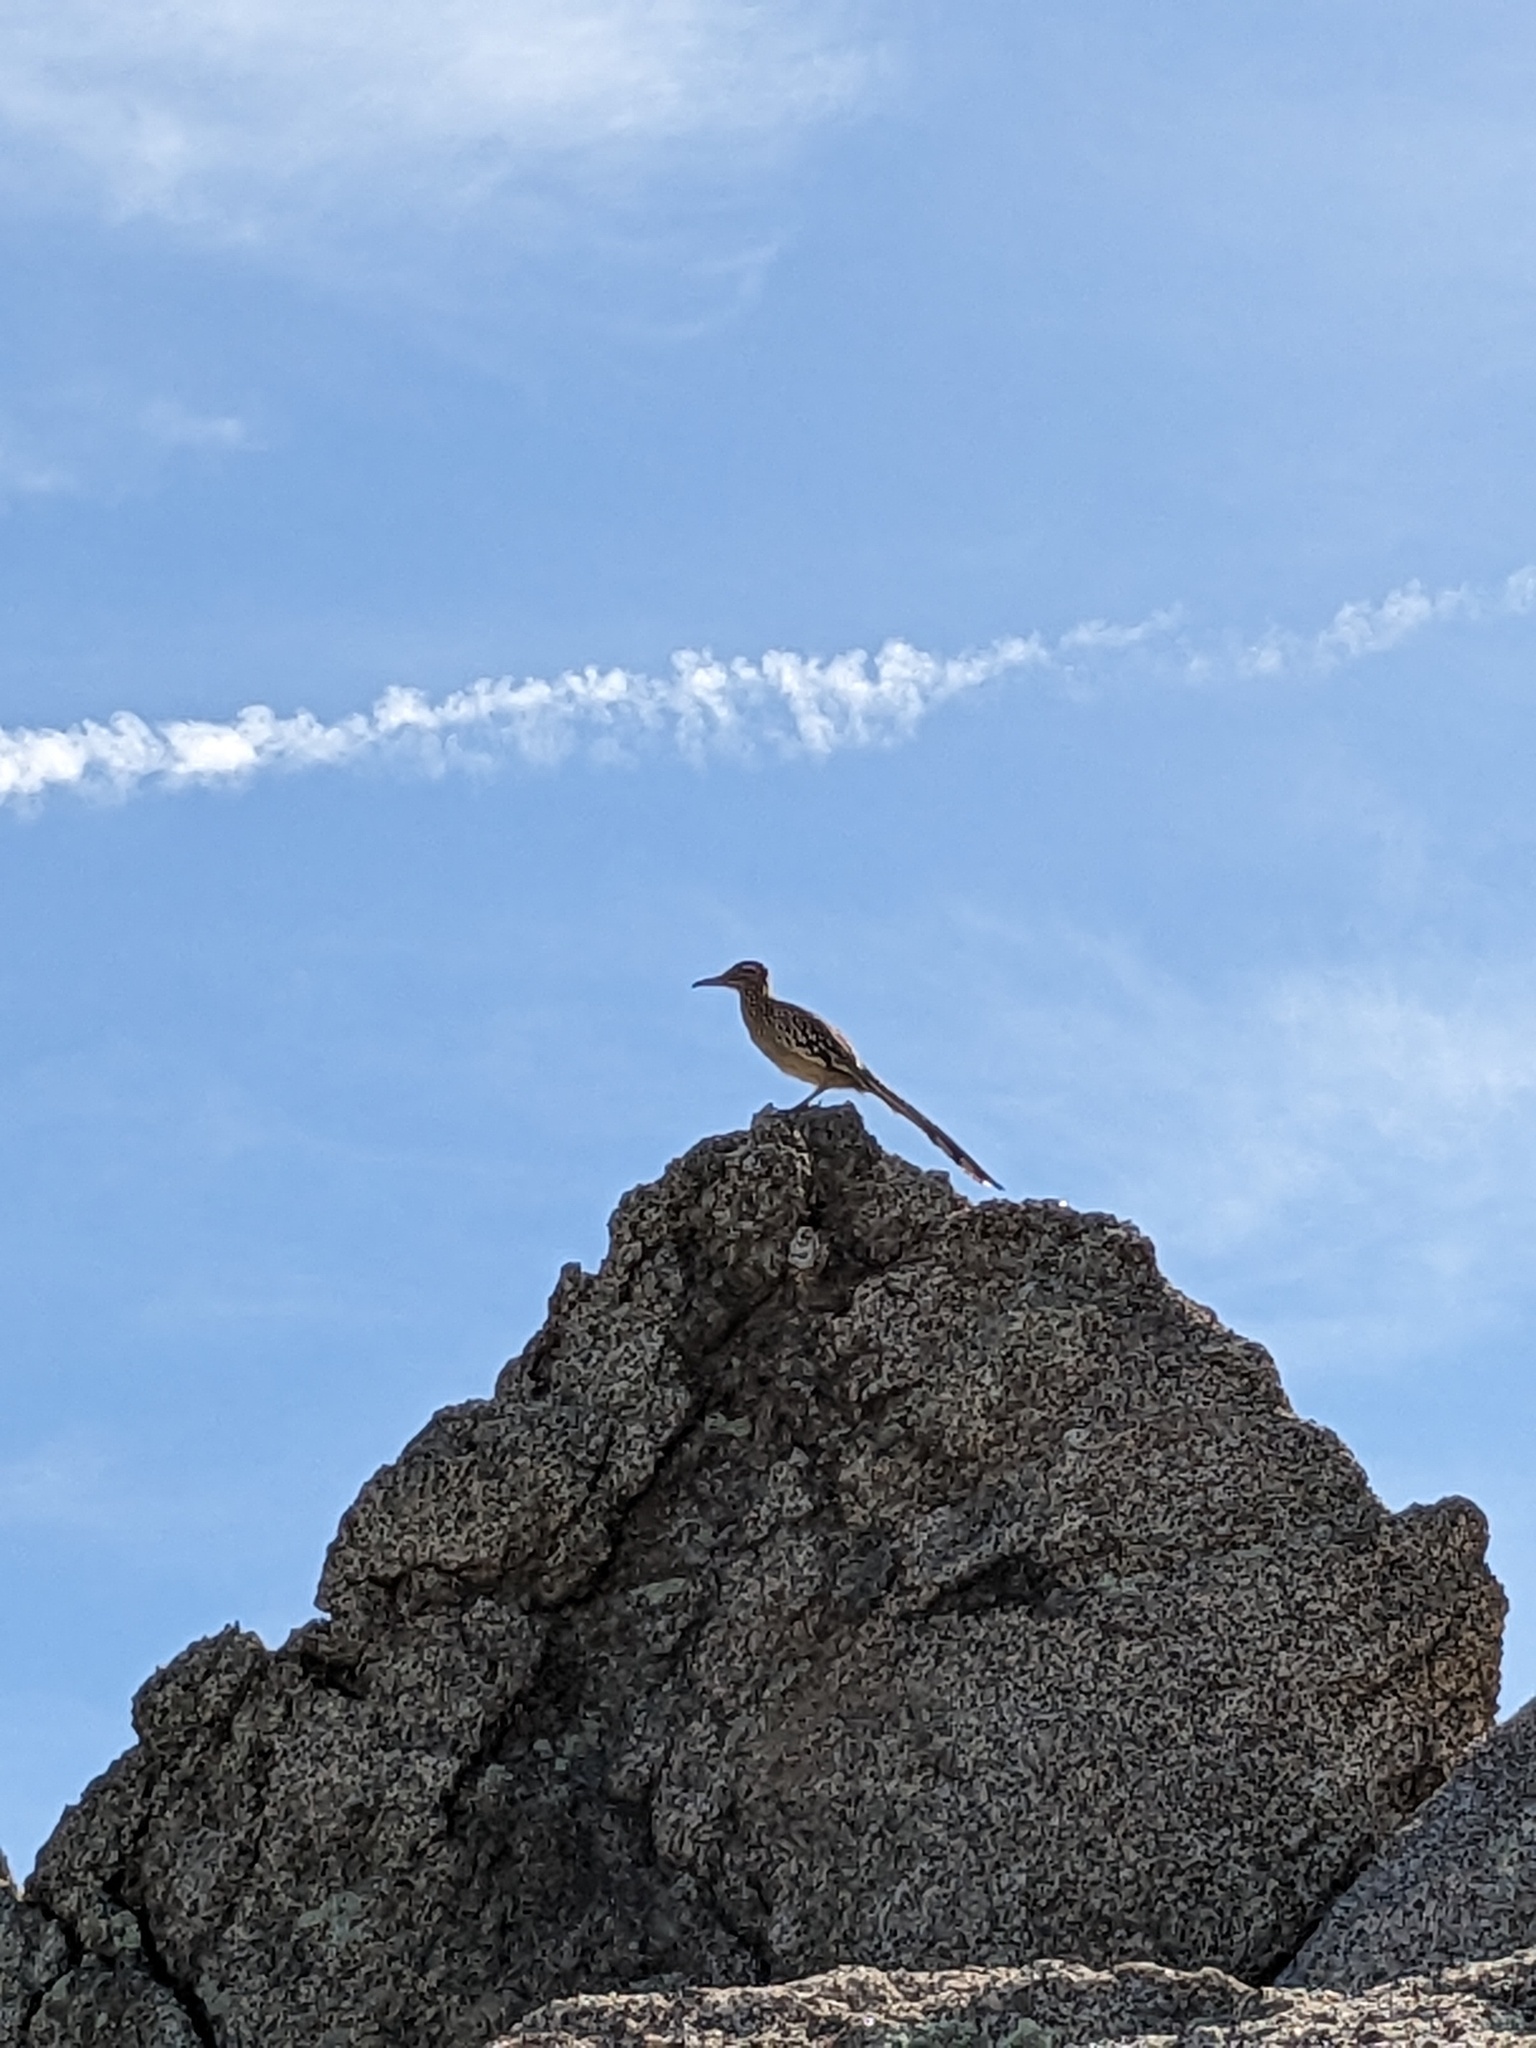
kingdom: Animalia
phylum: Chordata
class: Aves
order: Cuculiformes
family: Cuculidae
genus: Geococcyx
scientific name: Geococcyx californianus
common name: Greater roadrunner
